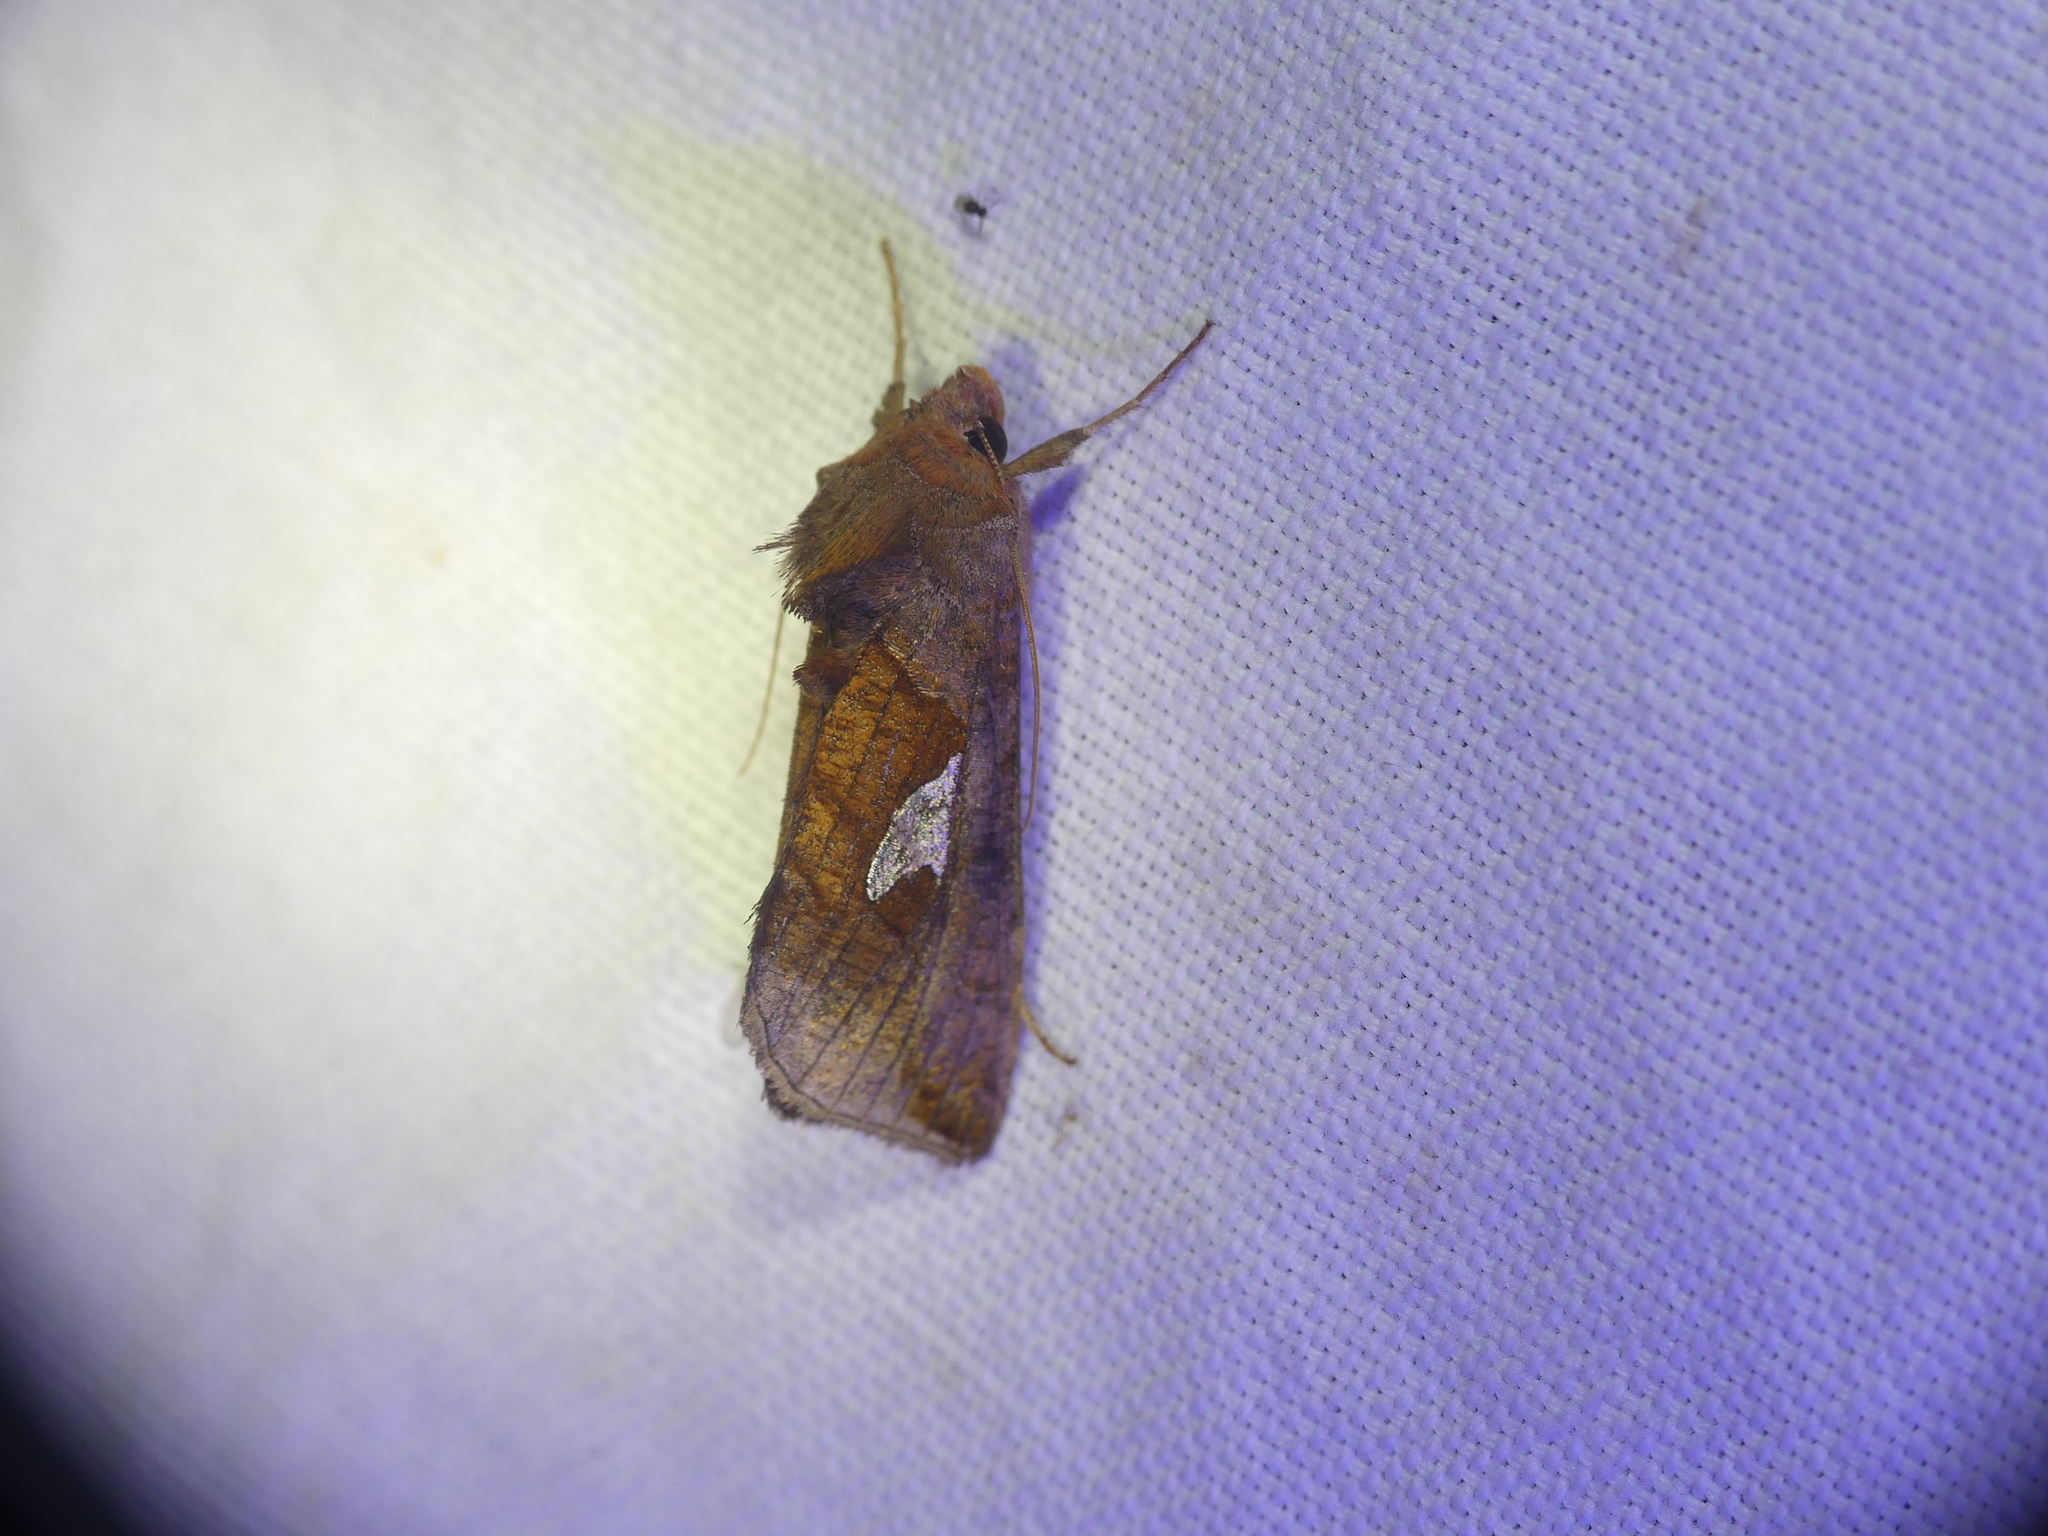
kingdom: Animalia
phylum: Arthropoda
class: Insecta
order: Lepidoptera
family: Noctuidae
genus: Autographa
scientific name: Autographa bractea
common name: Gold spangle
